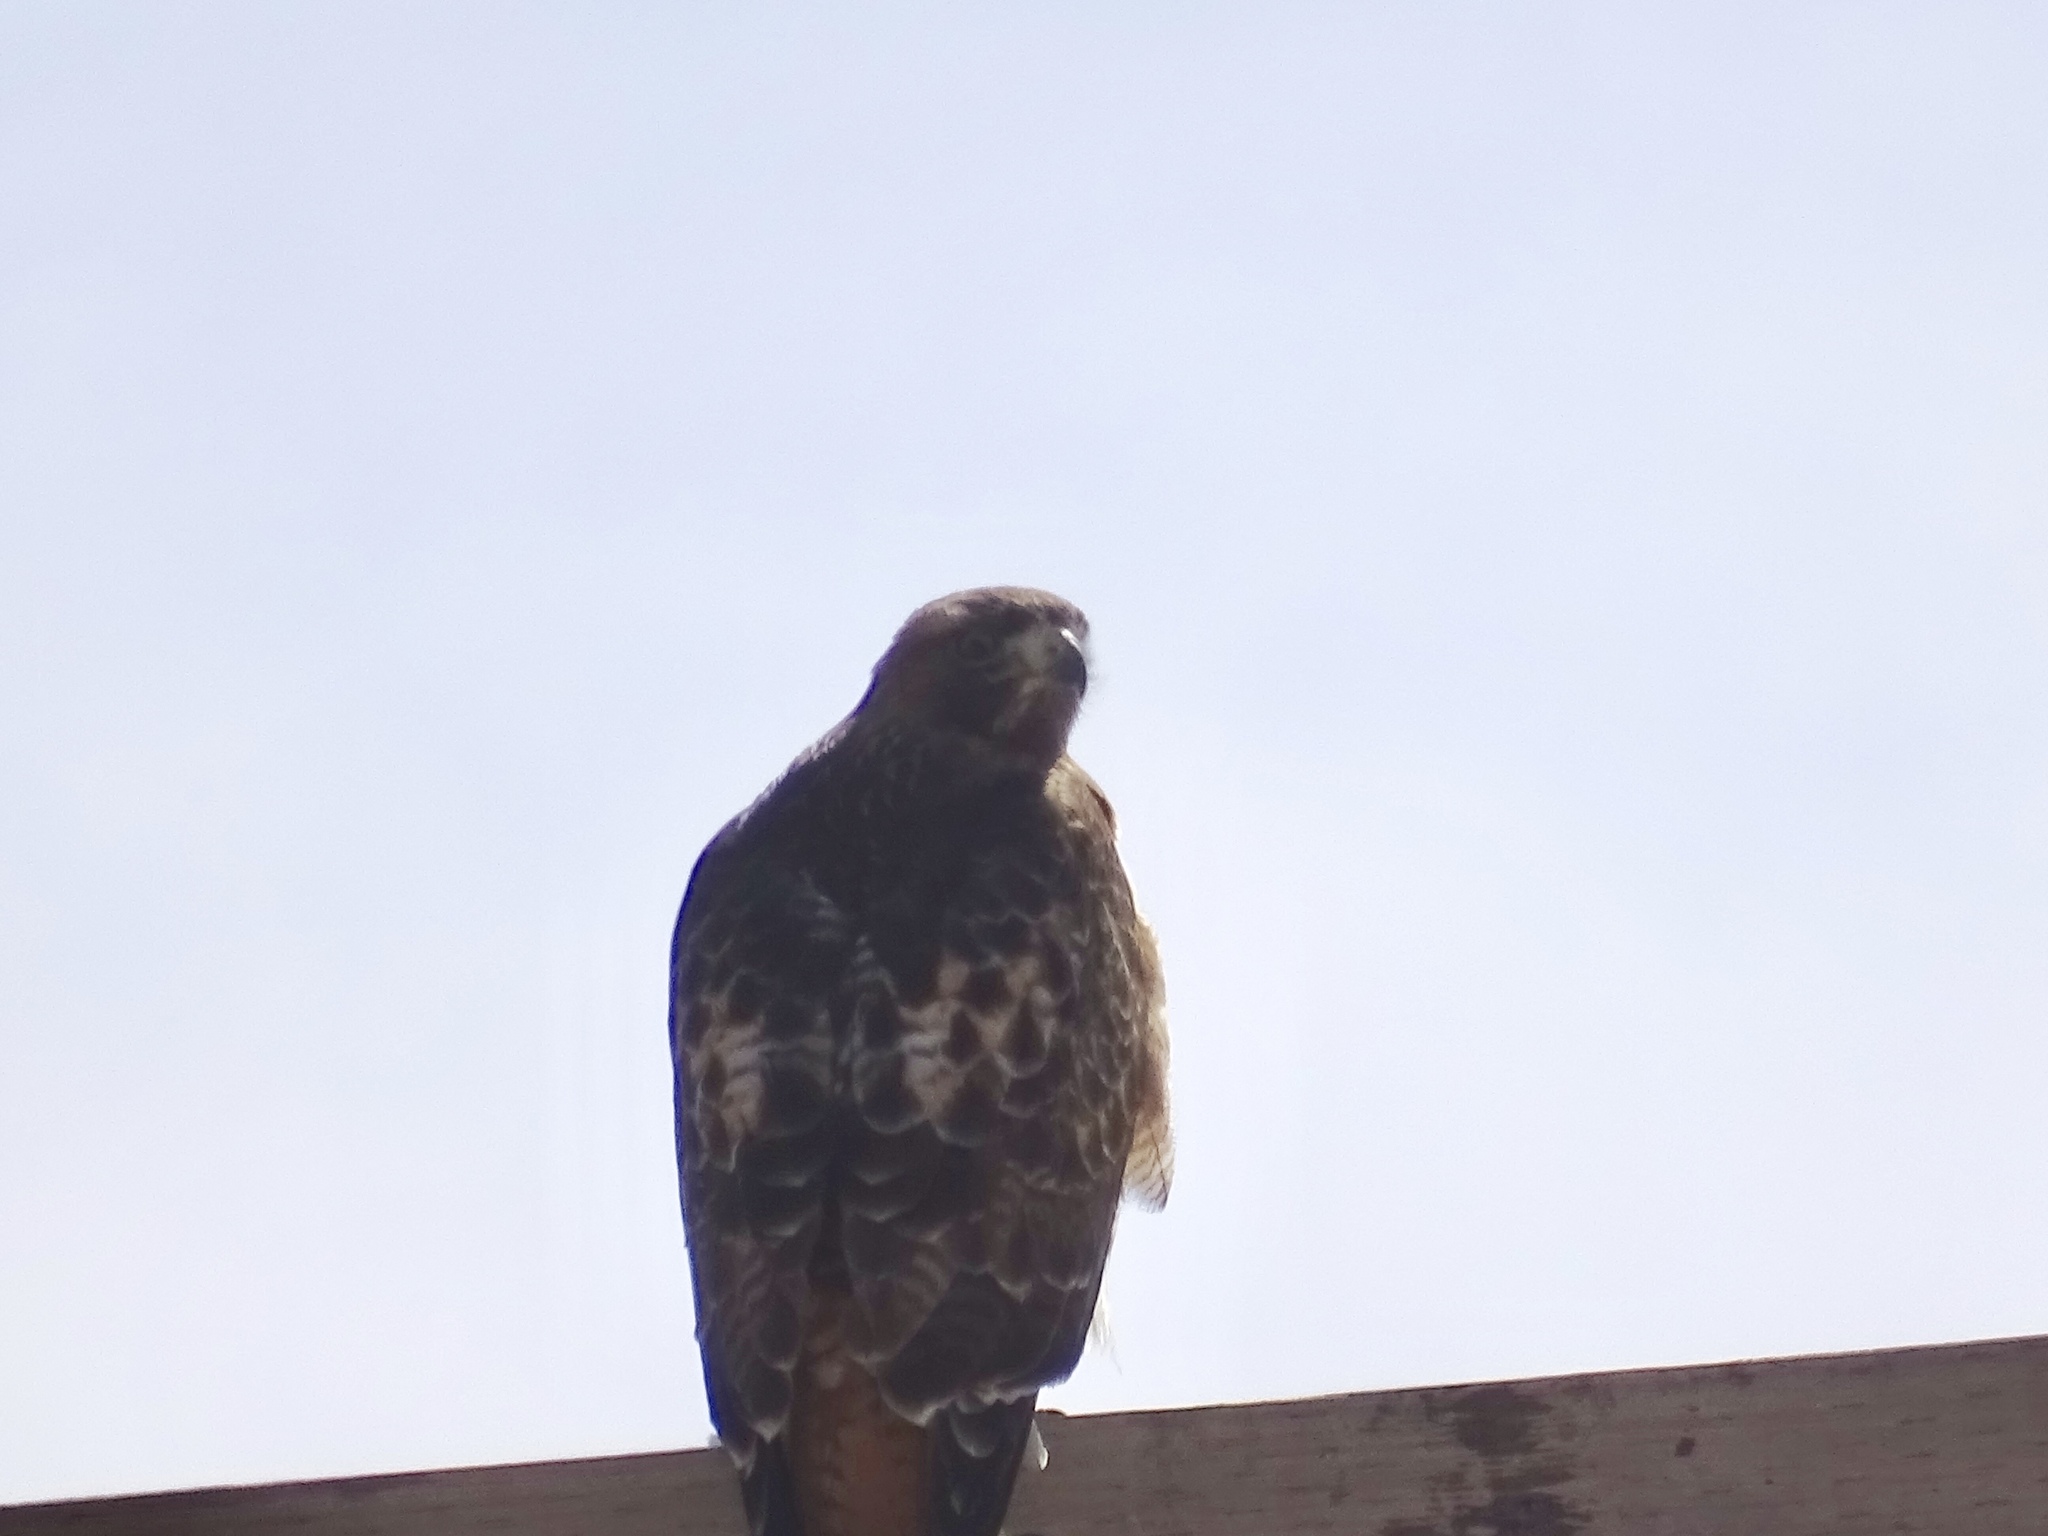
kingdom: Animalia
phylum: Chordata
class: Aves
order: Accipitriformes
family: Accipitridae
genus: Buteo
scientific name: Buteo jamaicensis
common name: Red-tailed hawk
